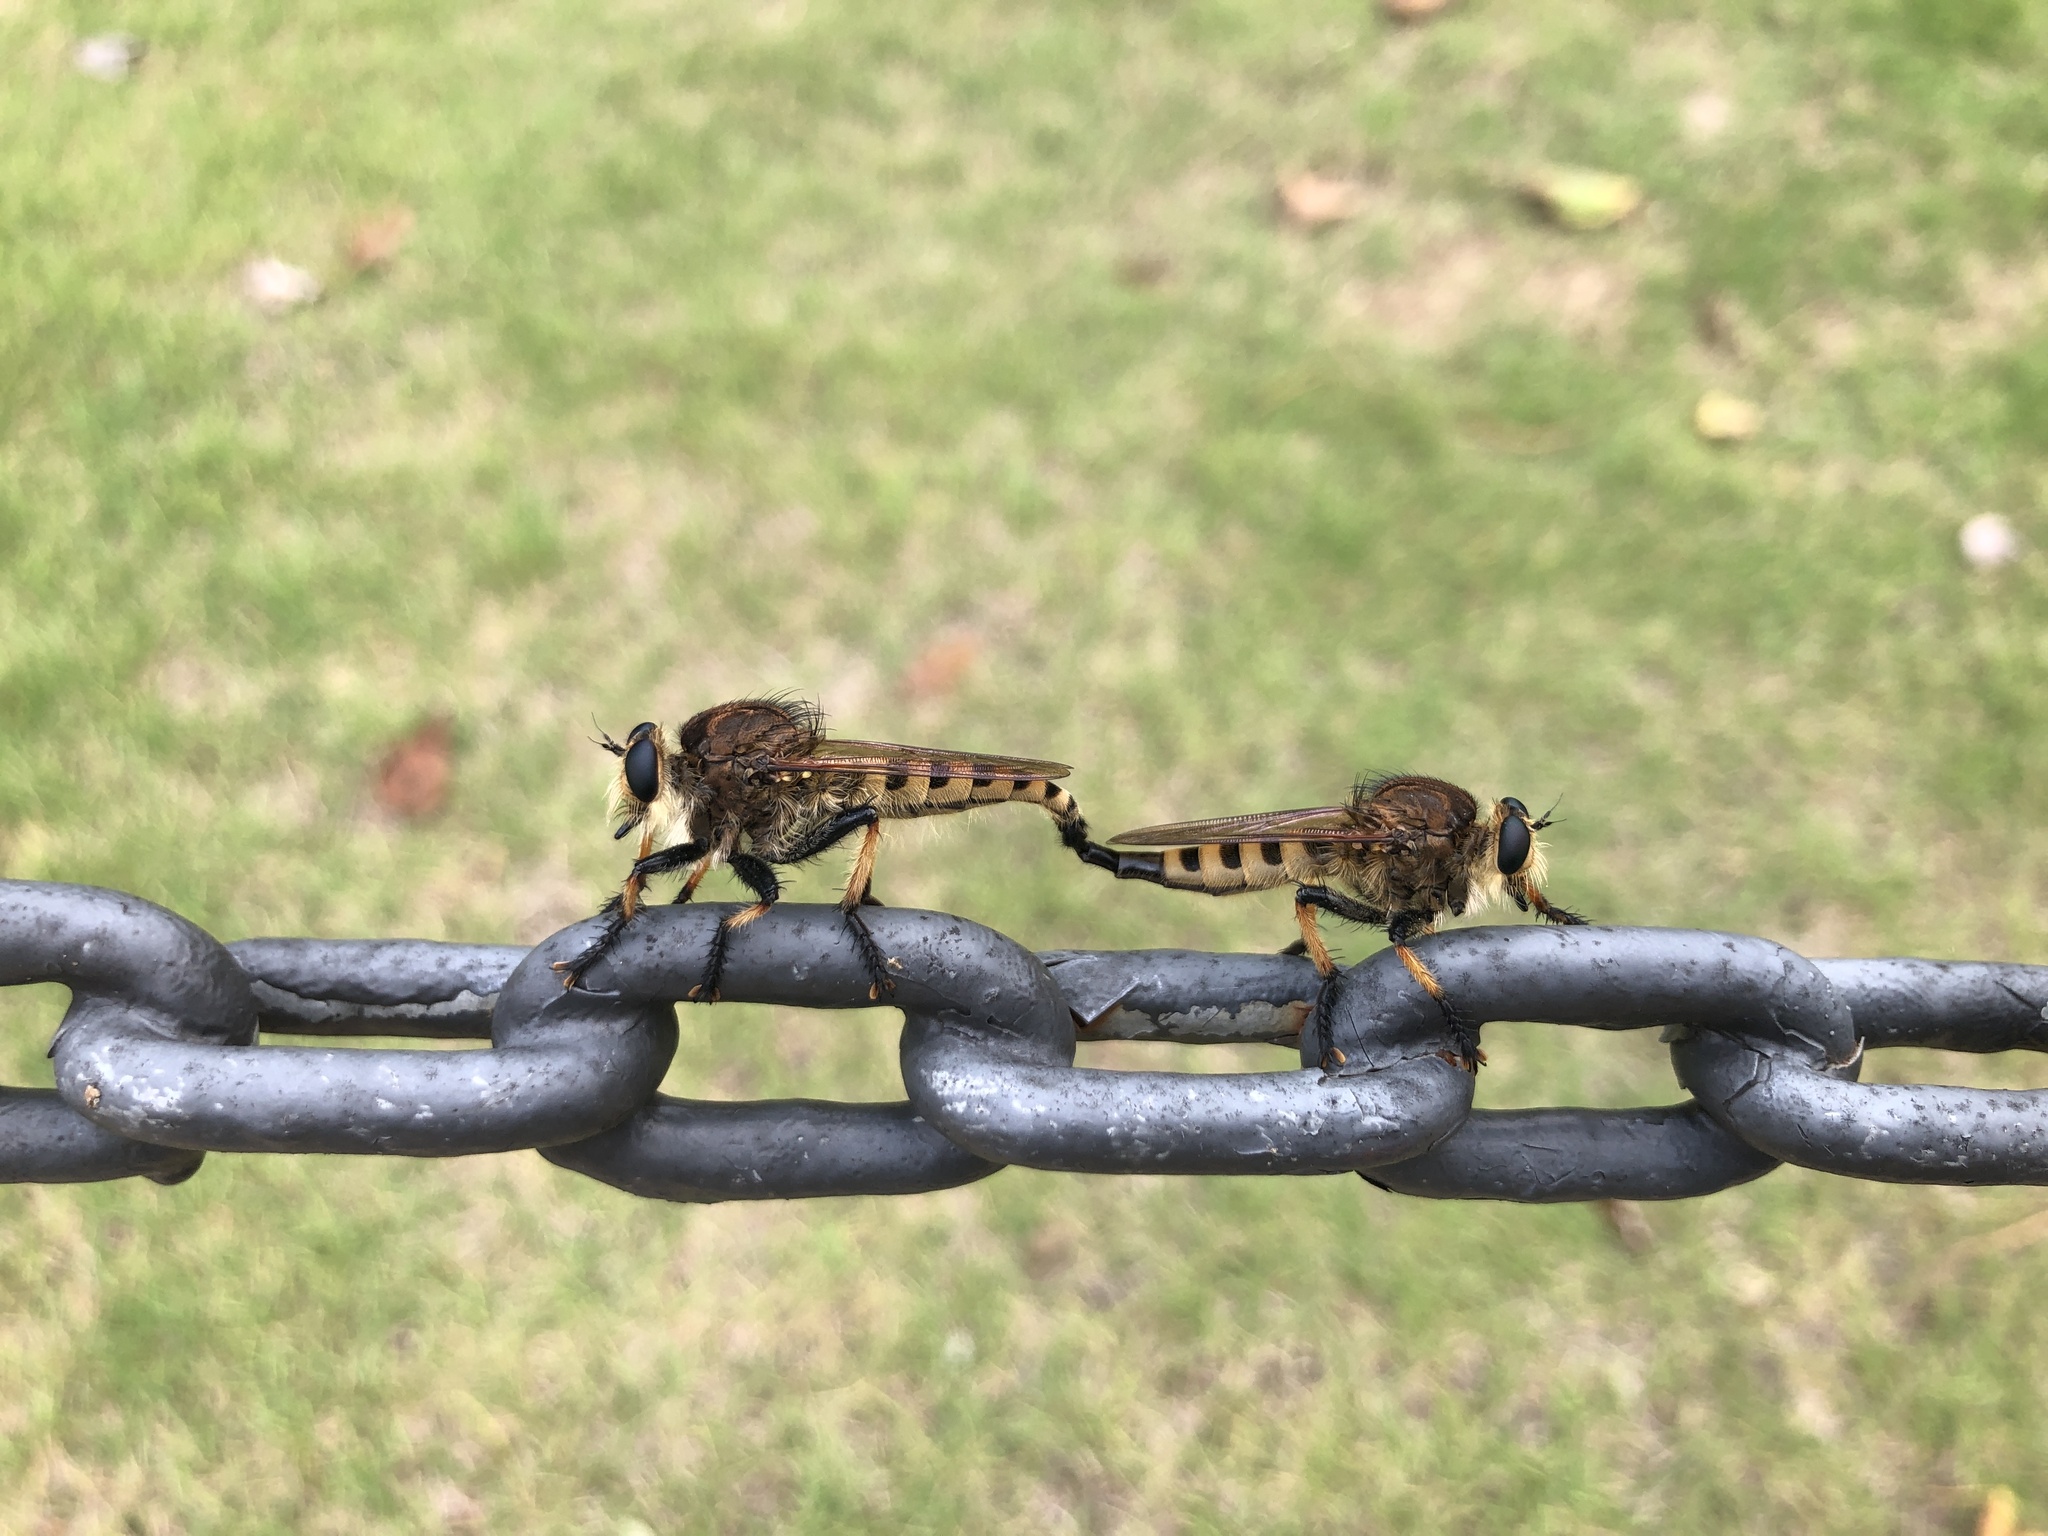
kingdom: Animalia
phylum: Arthropoda
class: Insecta
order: Diptera
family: Asilidae
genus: Promachus
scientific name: Promachus rufipes
